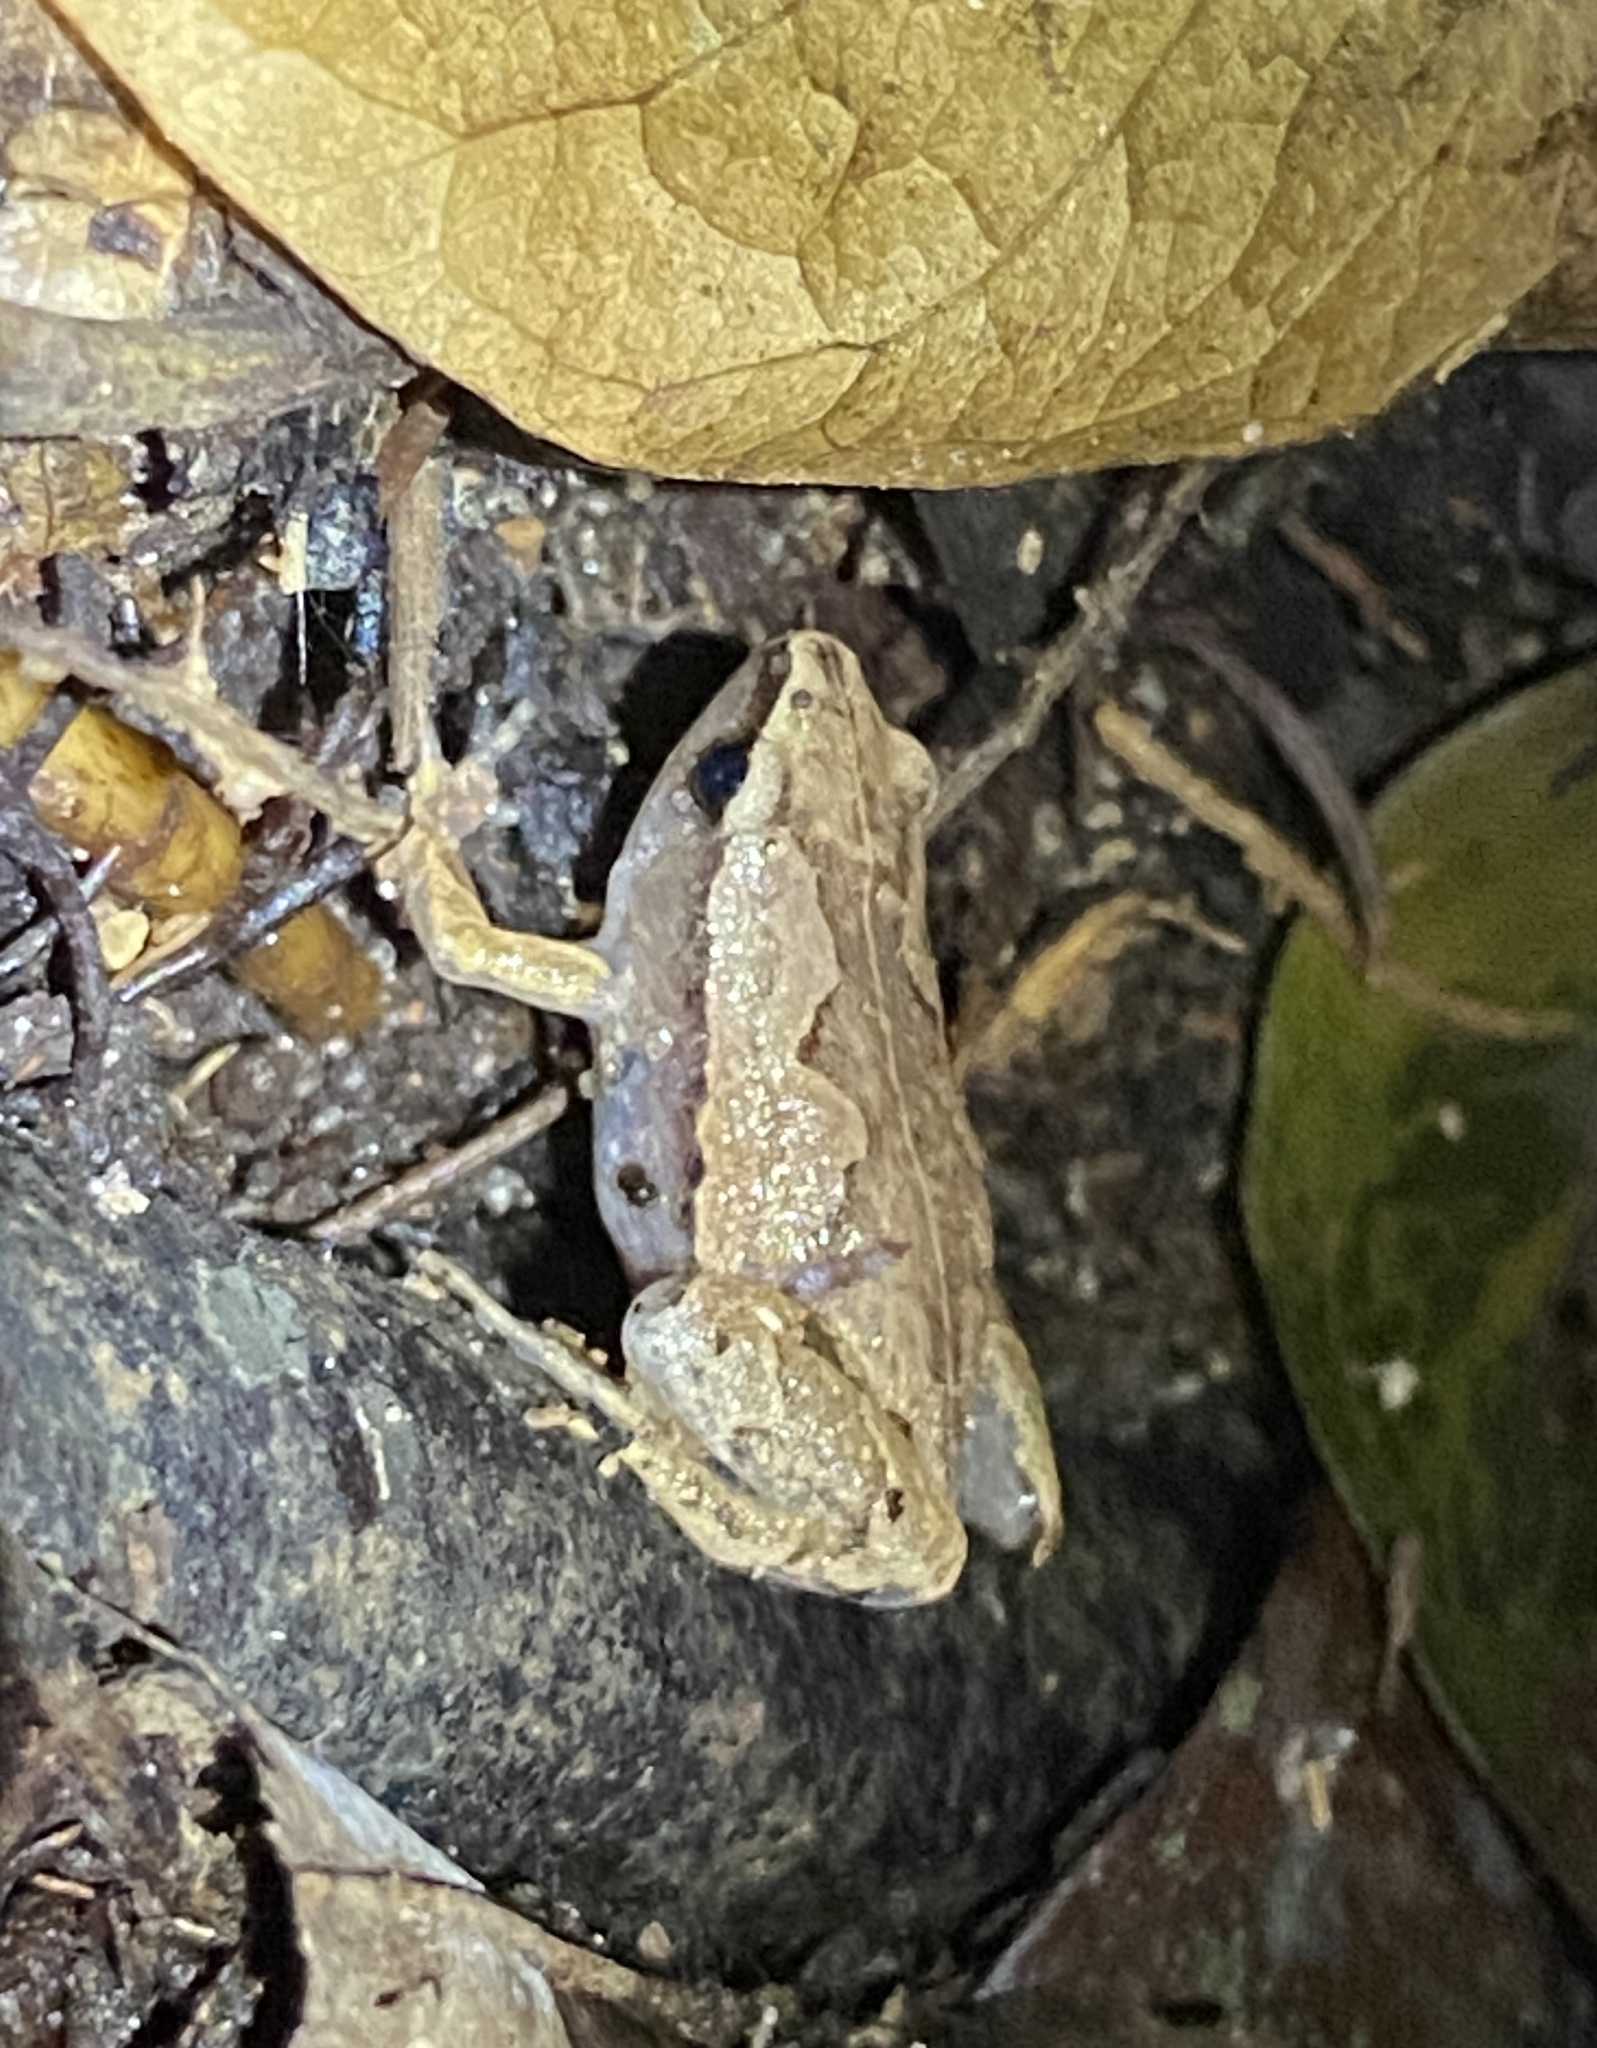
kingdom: Animalia
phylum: Chordata
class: Amphibia
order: Anura
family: Microhylidae
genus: Hamptophryne
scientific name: Hamptophryne boliviana
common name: Bolivian bleating frog
